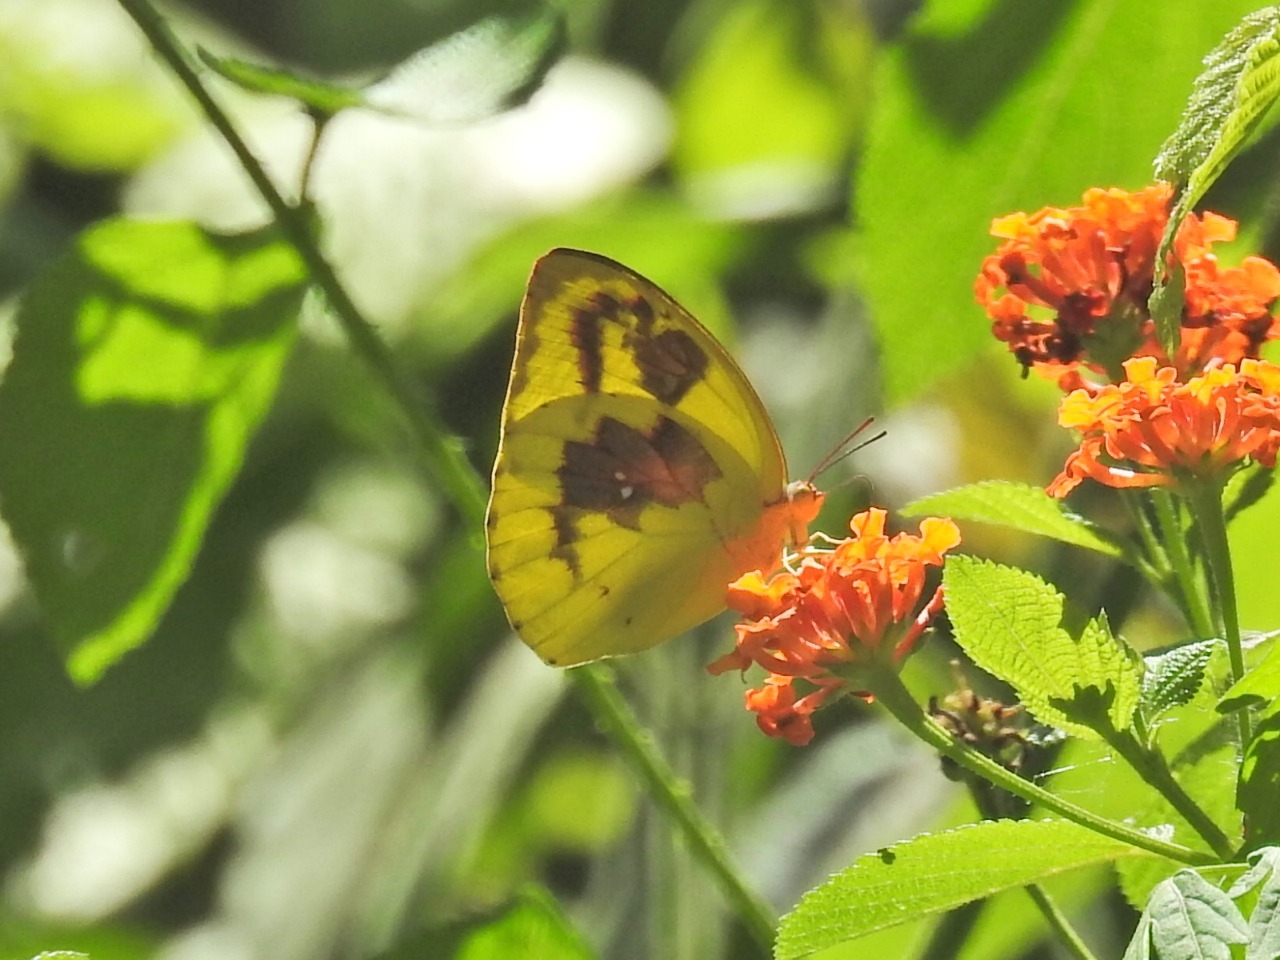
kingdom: Animalia
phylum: Arthropoda
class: Insecta
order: Lepidoptera
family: Pieridae
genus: Catopsilia
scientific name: Catopsilia pomona
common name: Common emigrant
